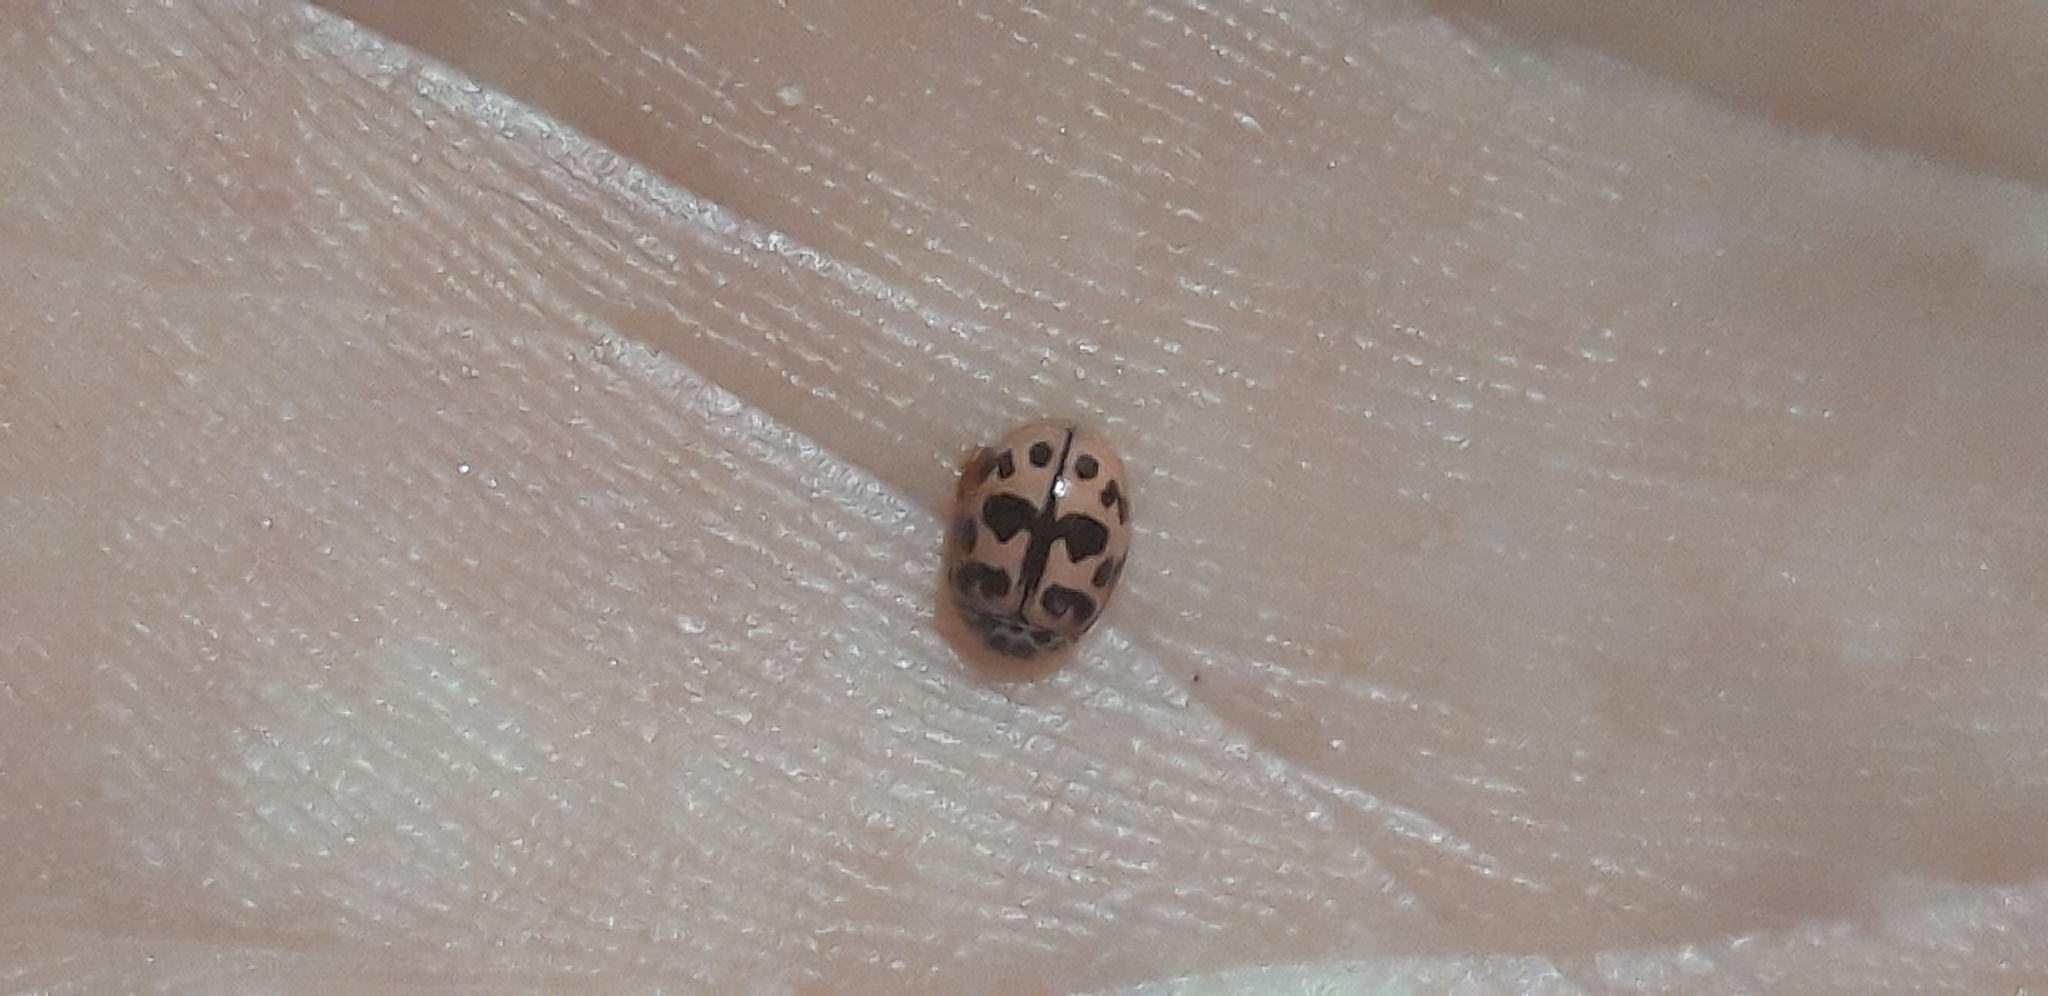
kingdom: Animalia
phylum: Arthropoda
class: Insecta
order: Coleoptera
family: Coccinellidae
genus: Oenopia
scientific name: Oenopia conglobata
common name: Ladybird beetle
